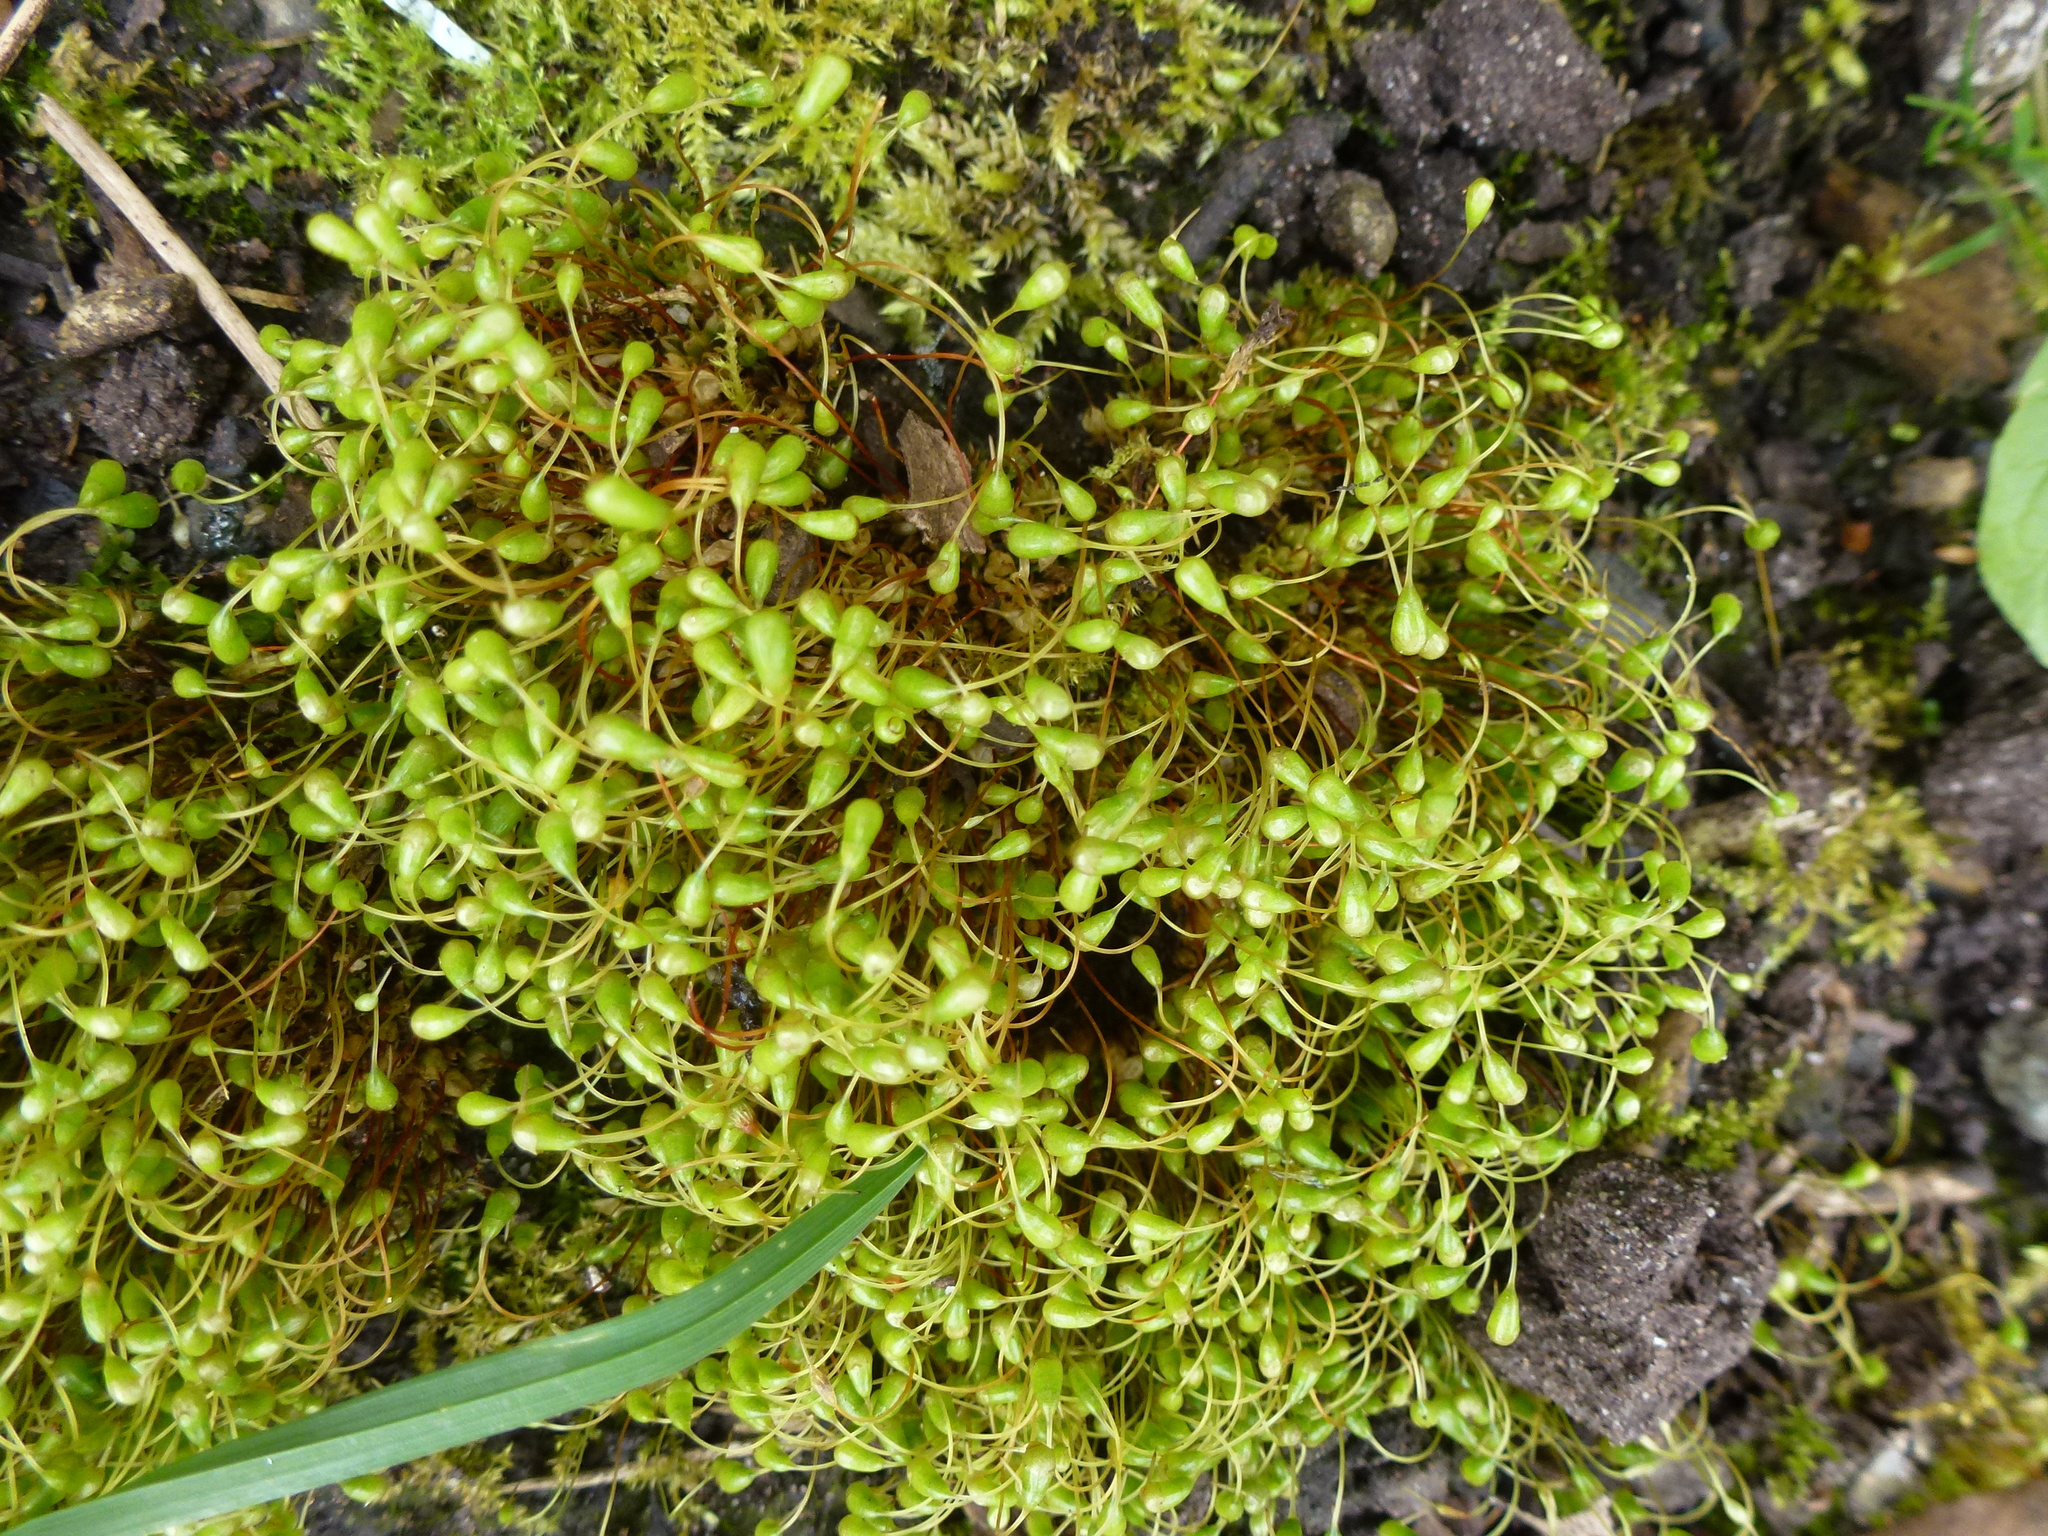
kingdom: Plantae
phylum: Bryophyta
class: Bryopsida
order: Funariales
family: Funariaceae
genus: Funaria
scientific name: Funaria hygrometrica
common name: Common cord moss
